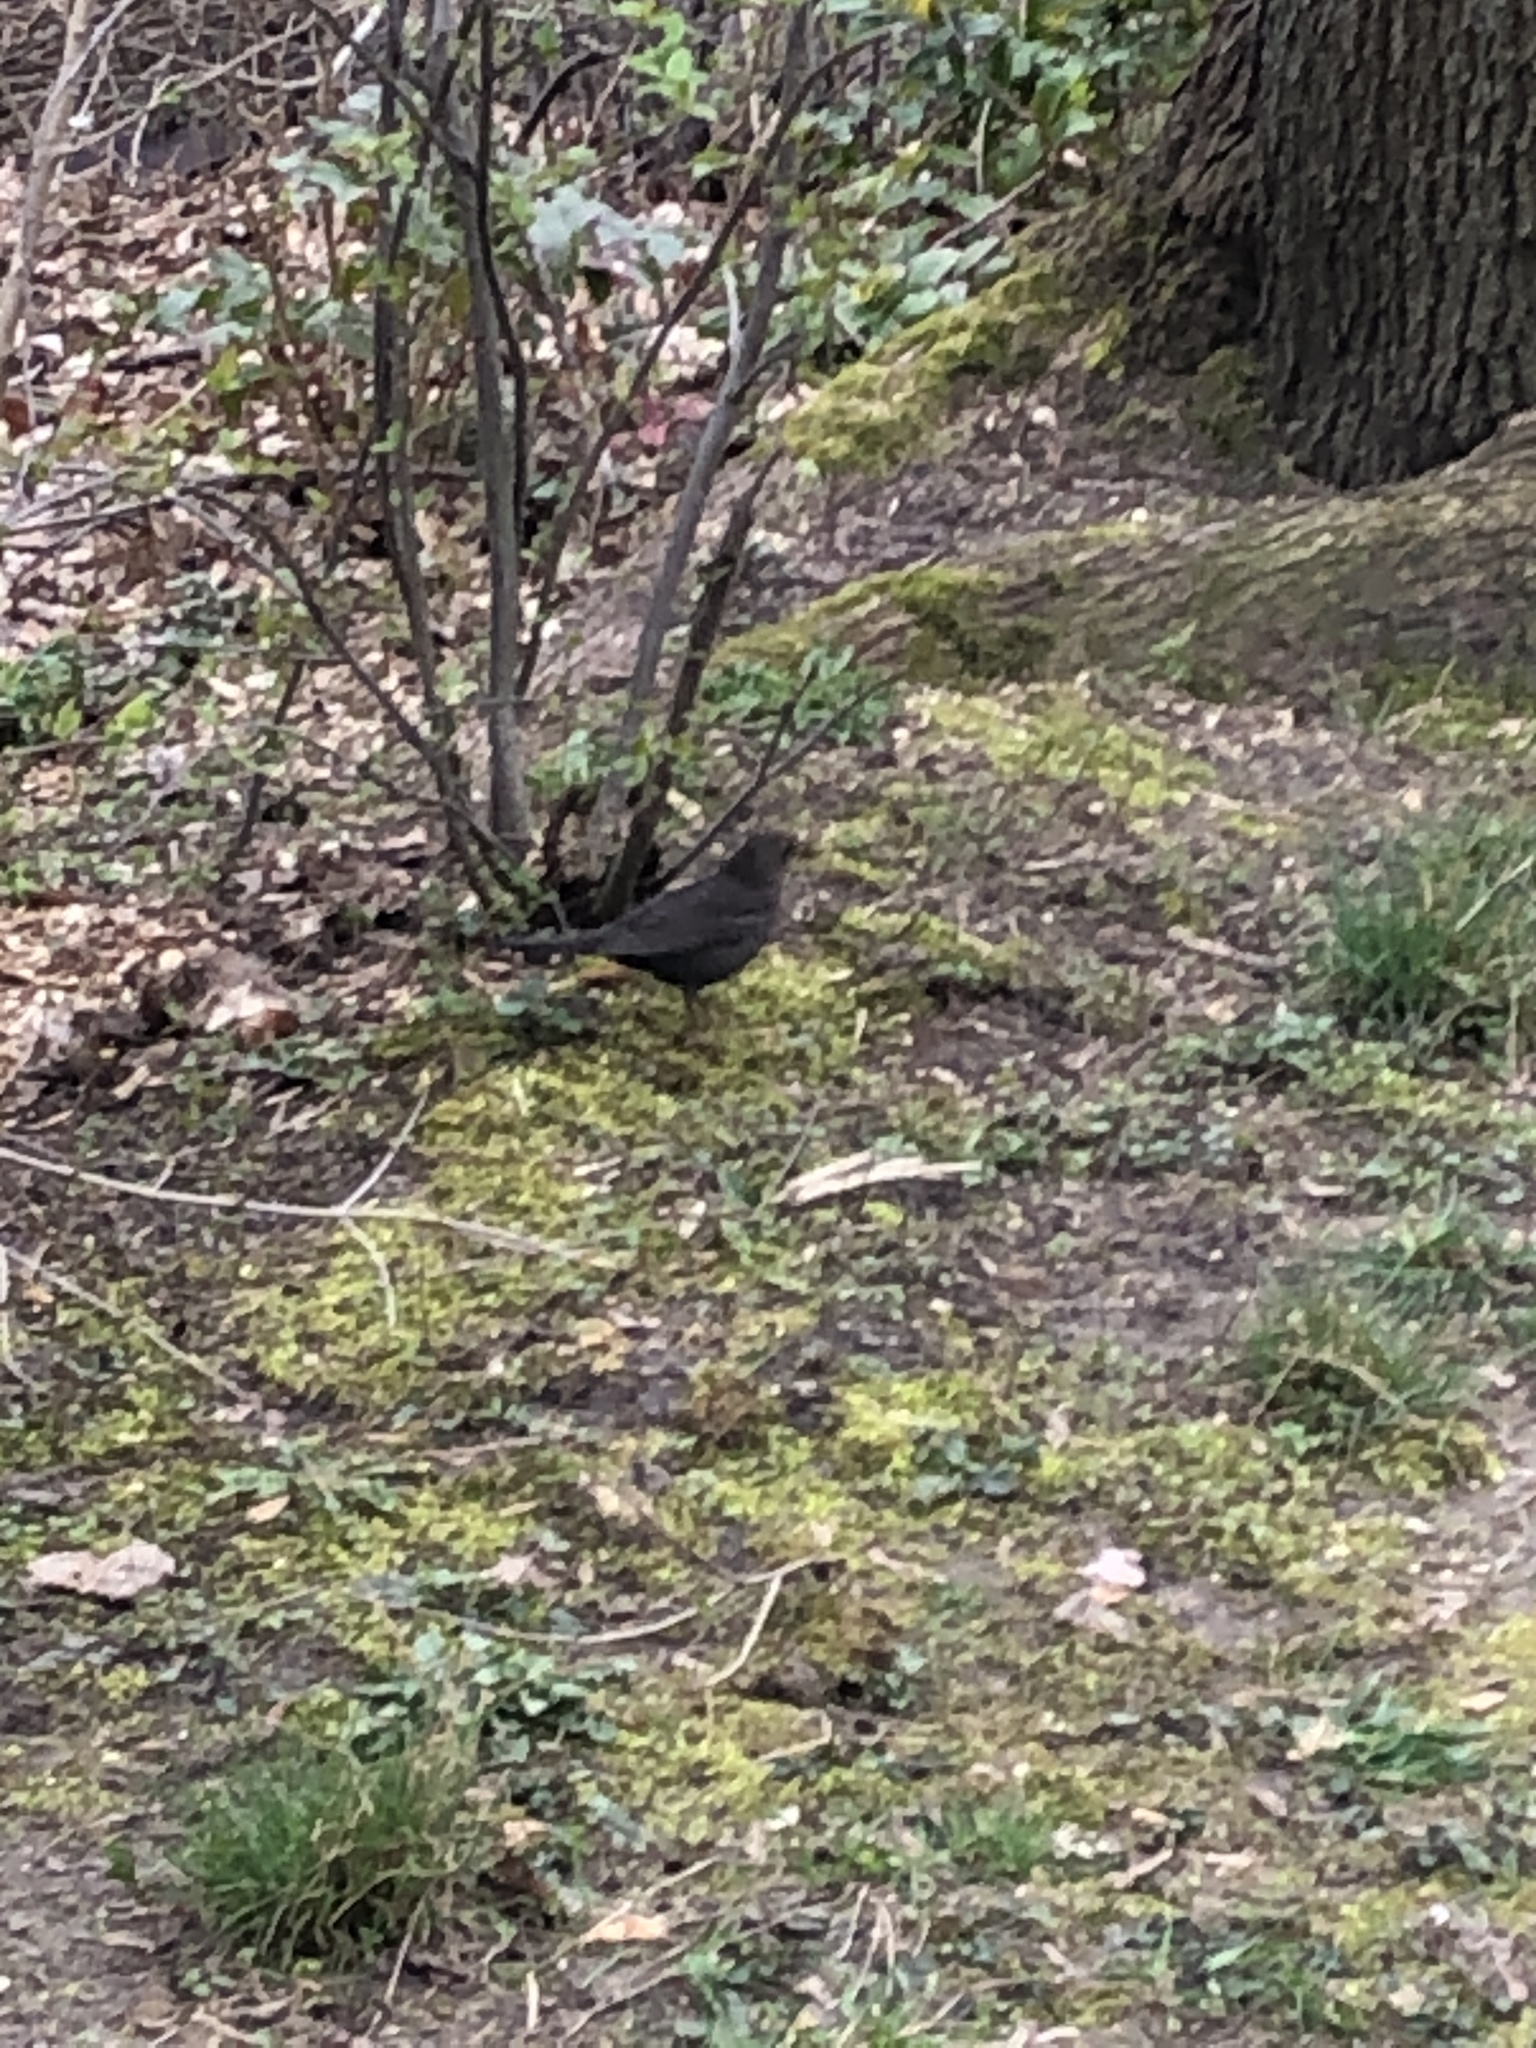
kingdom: Animalia
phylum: Chordata
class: Aves
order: Passeriformes
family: Turdidae
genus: Turdus
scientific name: Turdus merula
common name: Common blackbird
